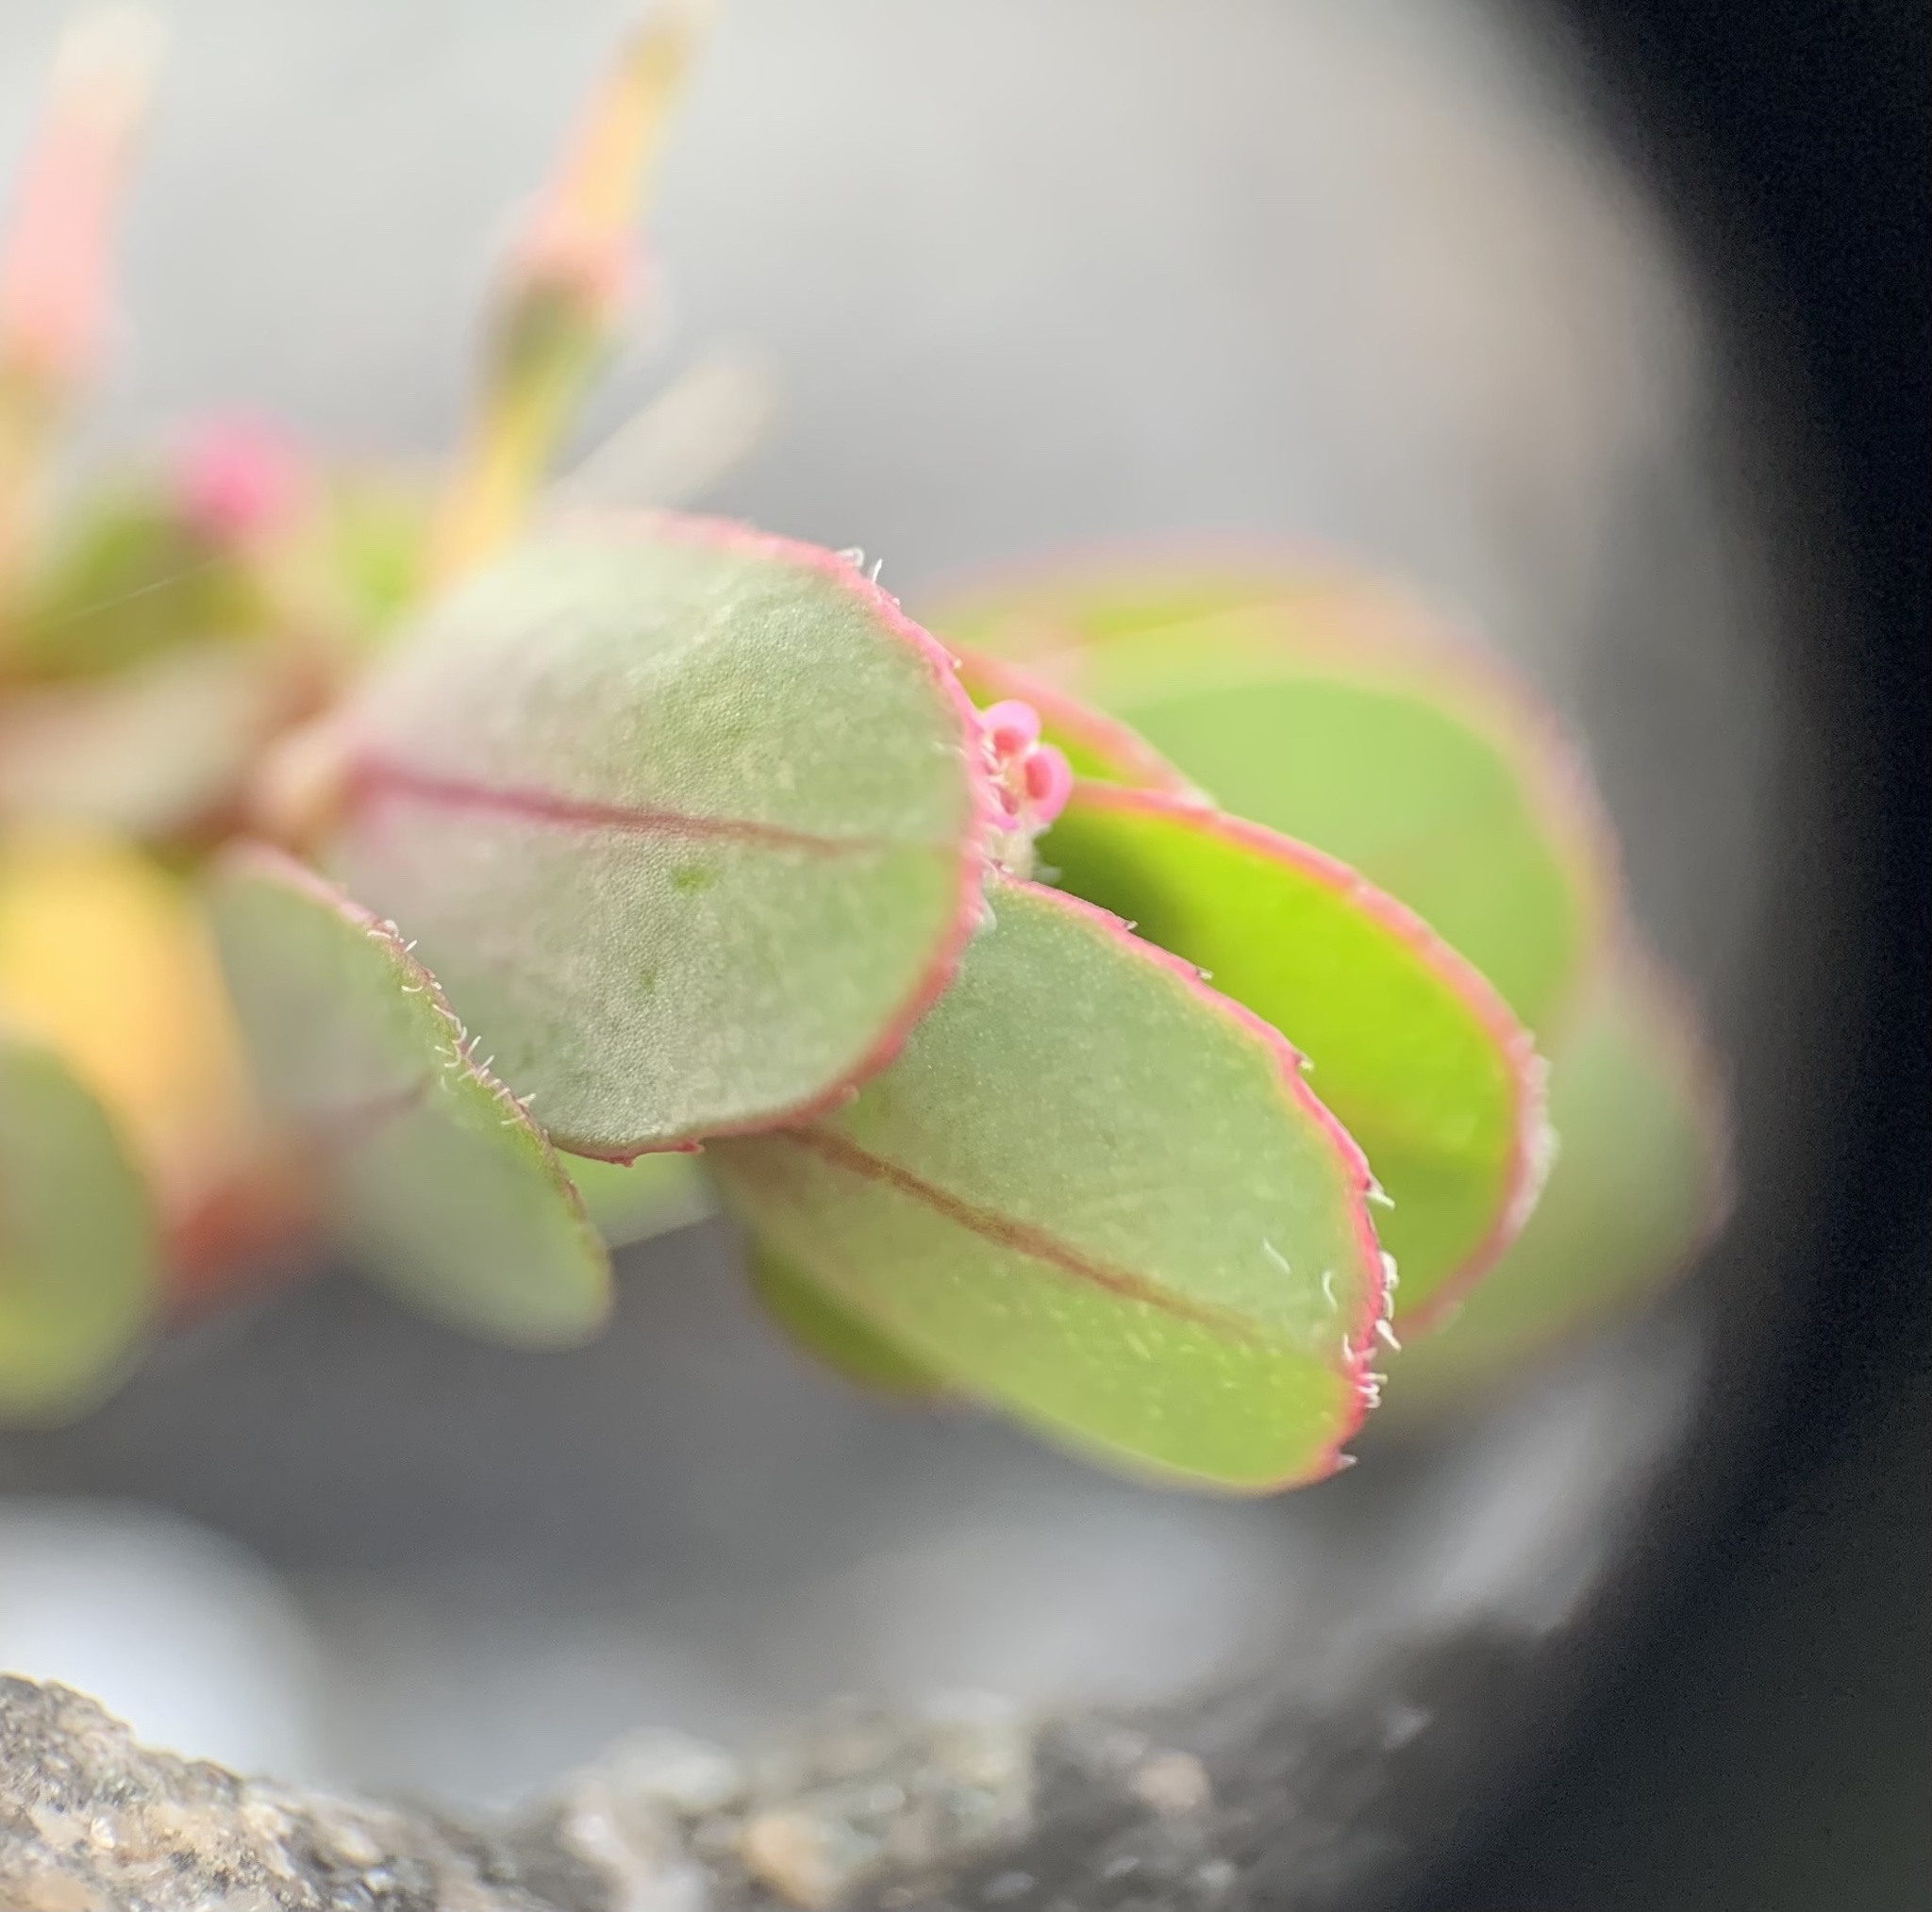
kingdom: Plantae
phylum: Tracheophyta
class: Magnoliopsida
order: Malpighiales
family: Euphorbiaceae
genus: Euphorbia
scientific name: Euphorbia prostrata
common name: Prostrate sandmat
